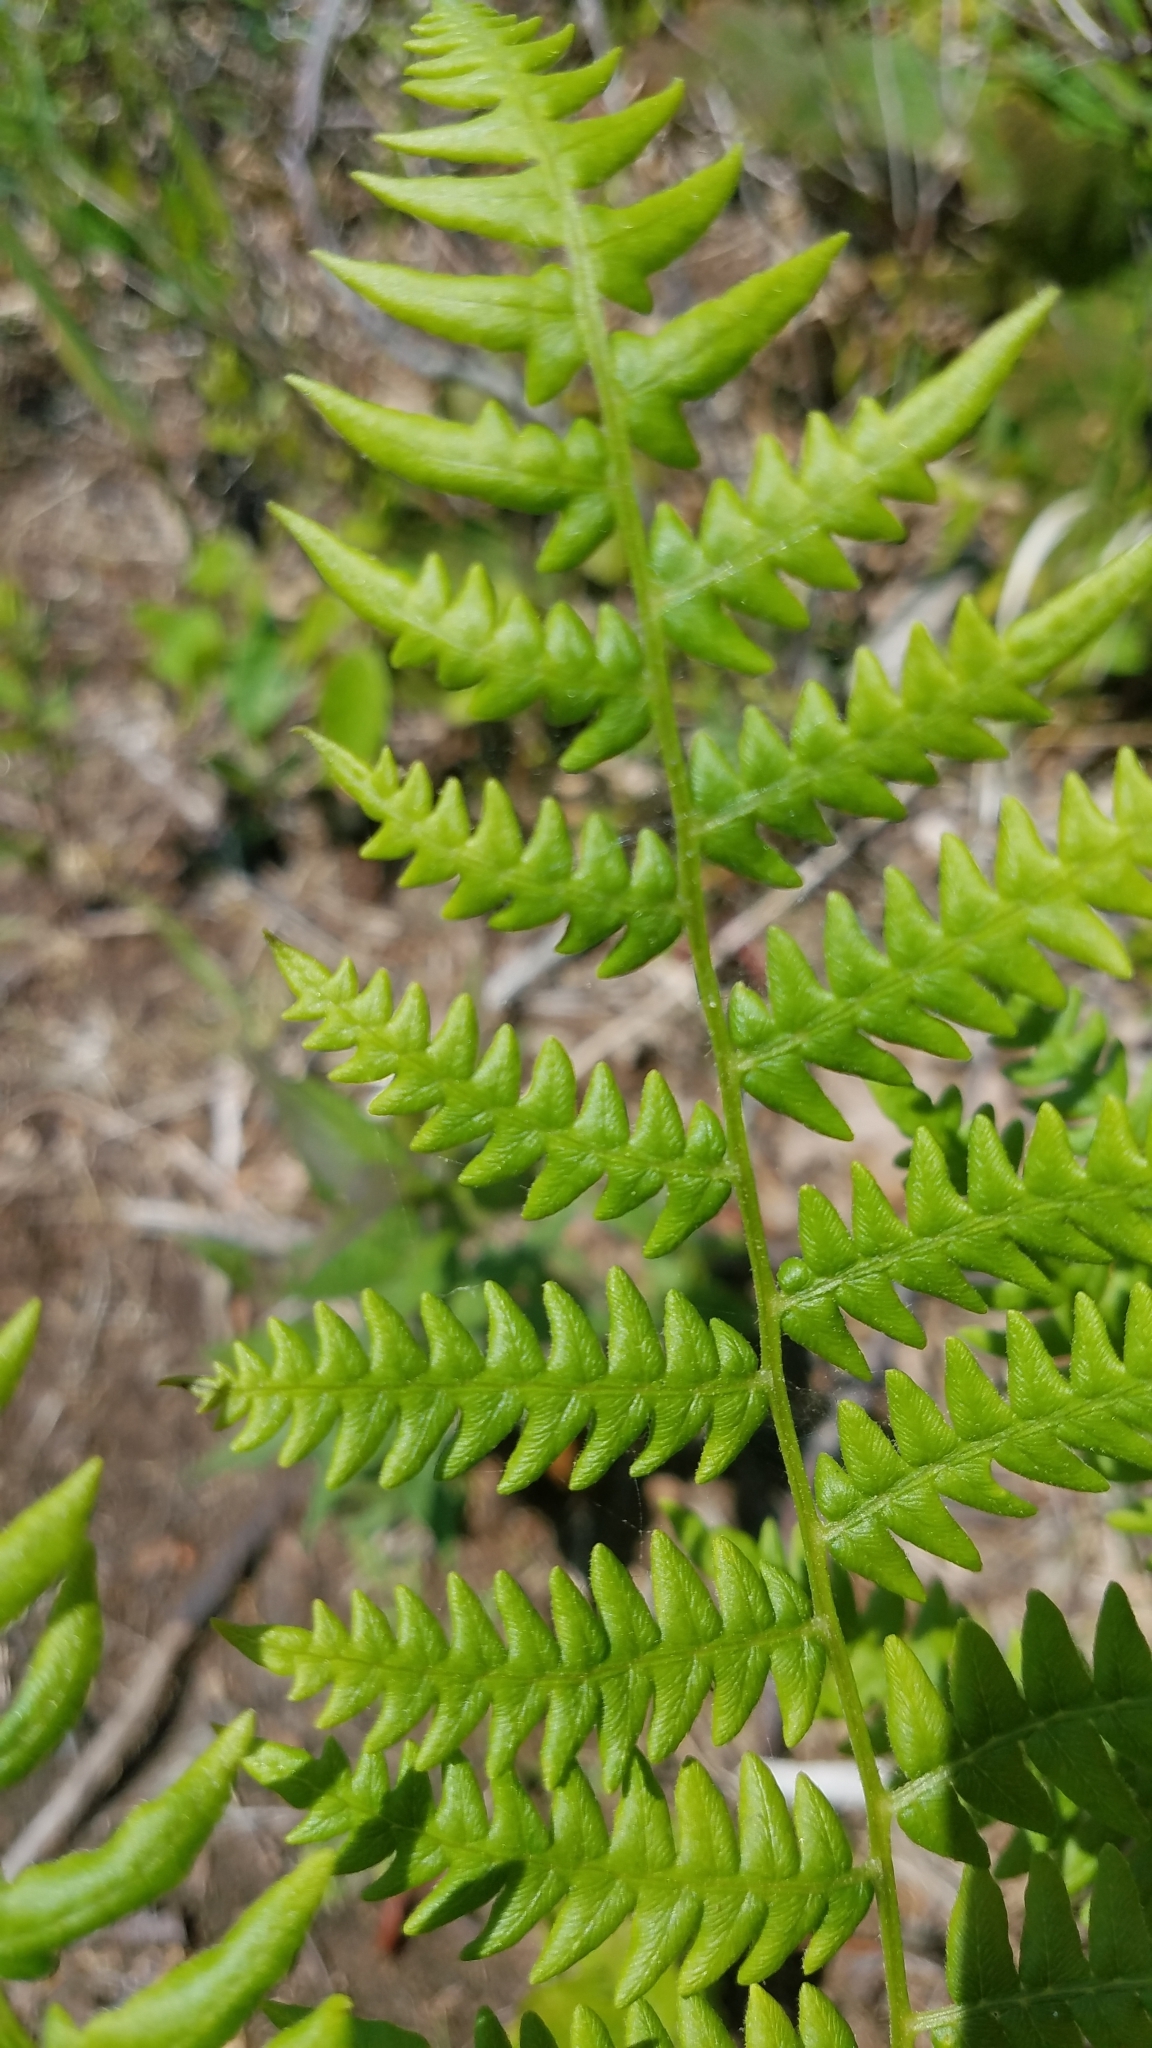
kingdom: Plantae
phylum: Tracheophyta
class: Polypodiopsida
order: Polypodiales
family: Dennstaedtiaceae
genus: Pteridium
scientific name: Pteridium aquilinum
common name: Bracken
